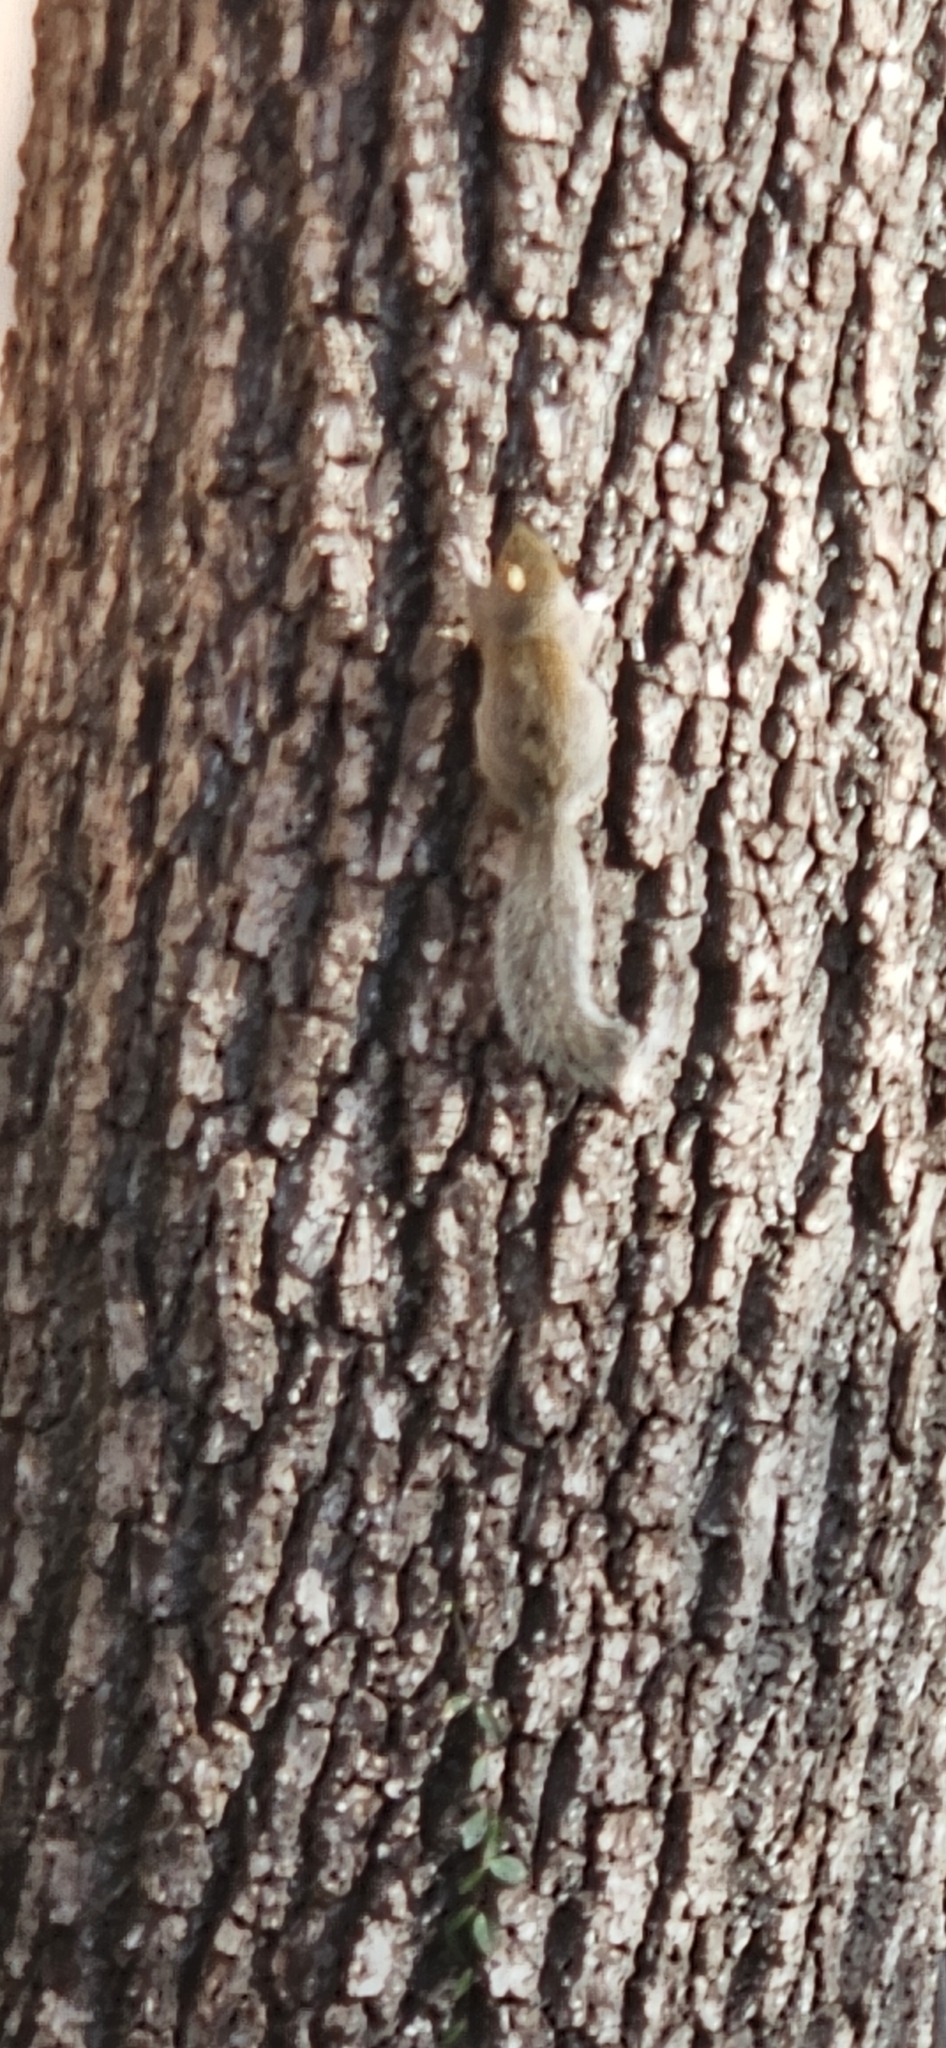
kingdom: Animalia
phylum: Chordata
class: Mammalia
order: Rodentia
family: Sciuridae
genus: Sciurus
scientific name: Sciurus carolinensis
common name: Eastern gray squirrel
